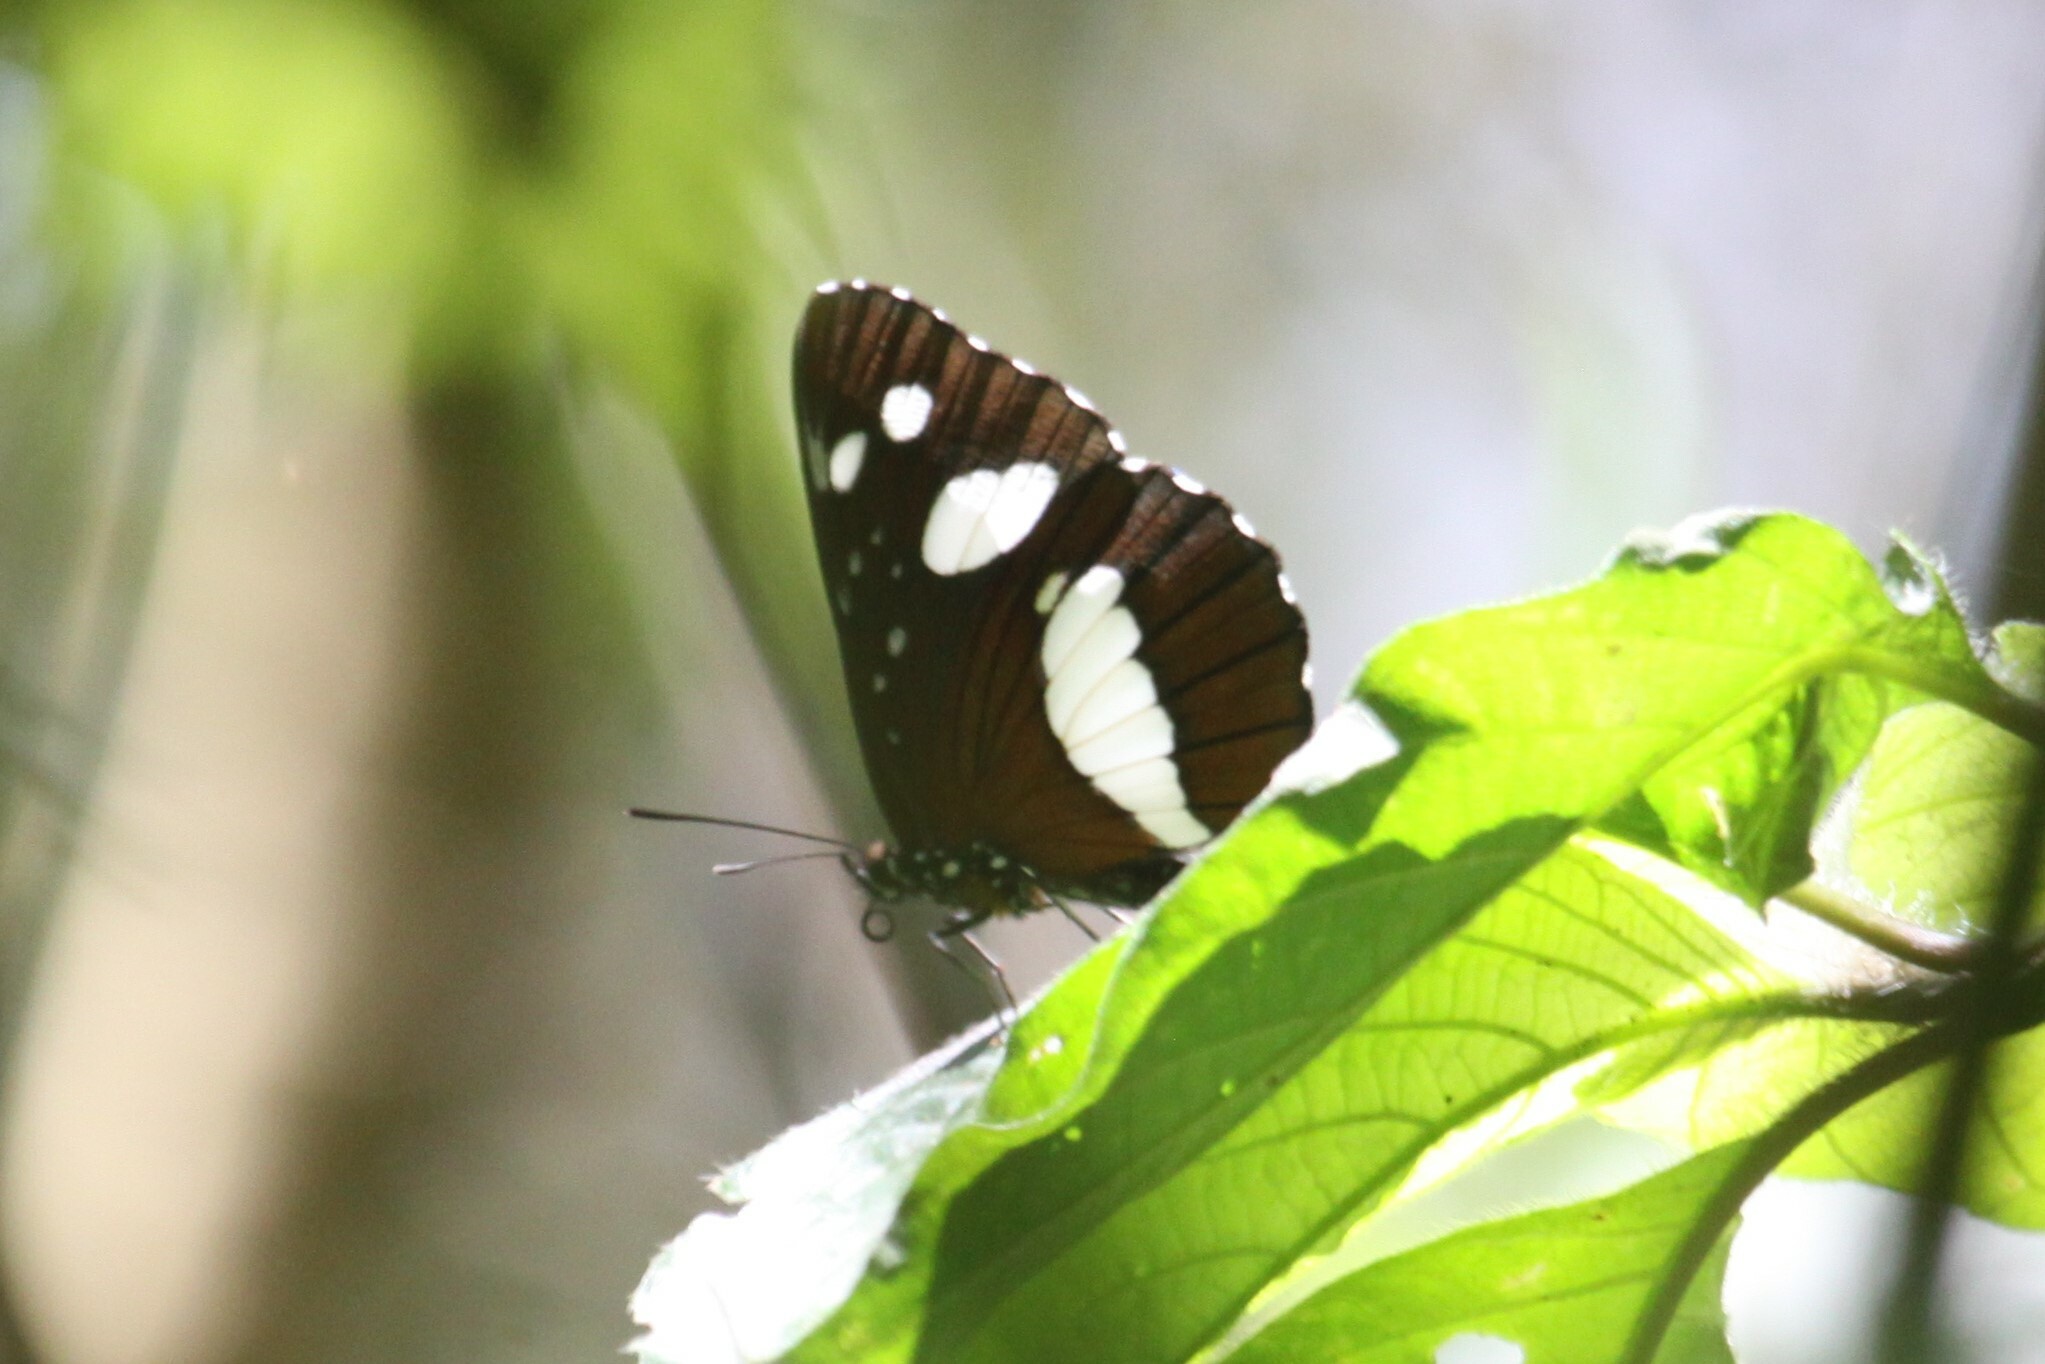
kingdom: Animalia
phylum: Arthropoda
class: Insecta
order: Lepidoptera
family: Nymphalidae
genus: Neptis
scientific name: Neptis swynnertoni
